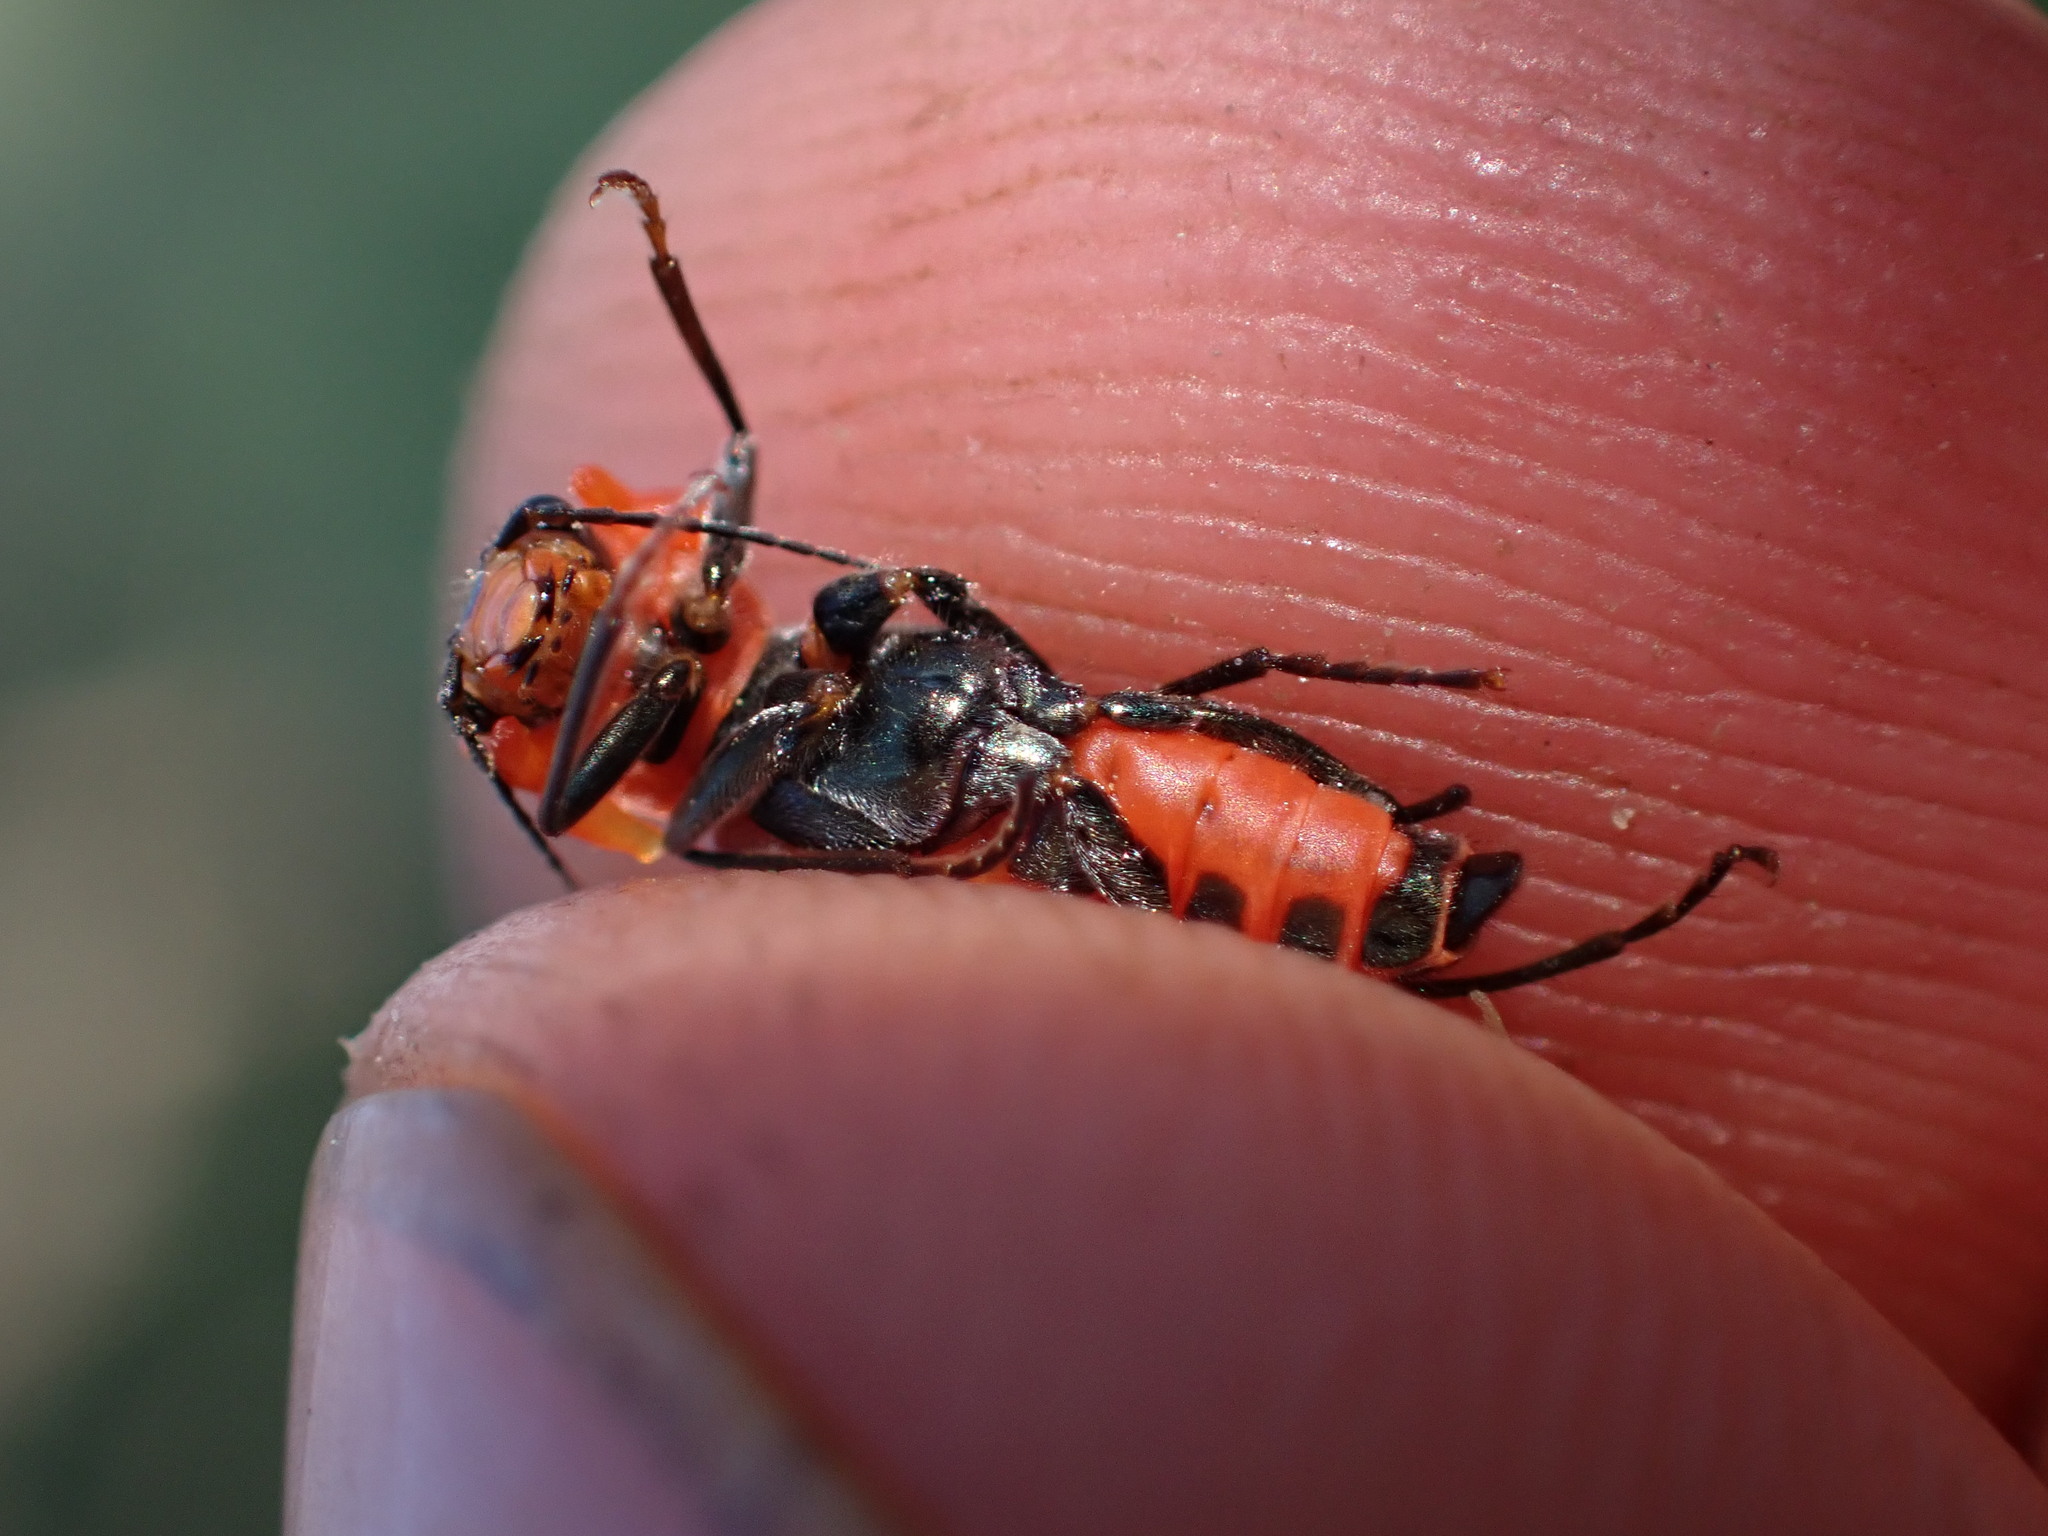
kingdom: Animalia
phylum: Arthropoda
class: Insecta
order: Coleoptera
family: Malachiidae
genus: Clanoptilus
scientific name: Clanoptilus rufus
